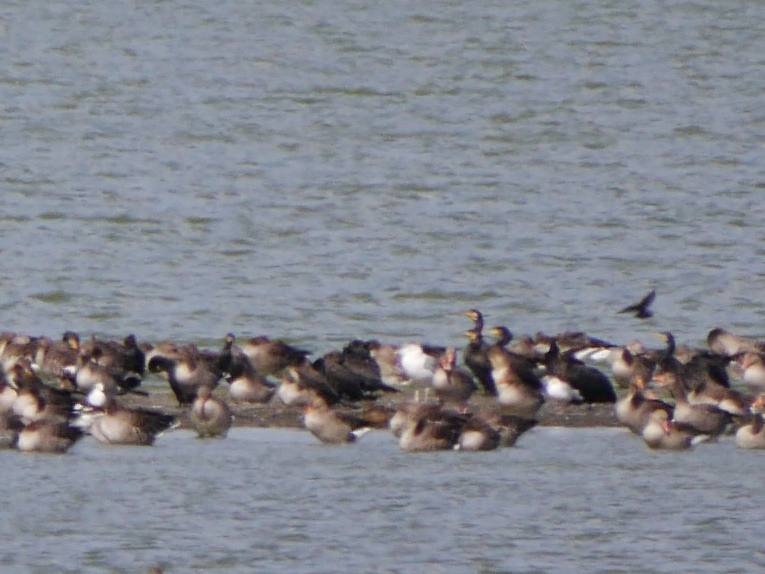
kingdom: Animalia
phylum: Chordata
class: Aves
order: Anseriformes
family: Anatidae
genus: Anser
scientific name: Anser anser
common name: Greylag goose
